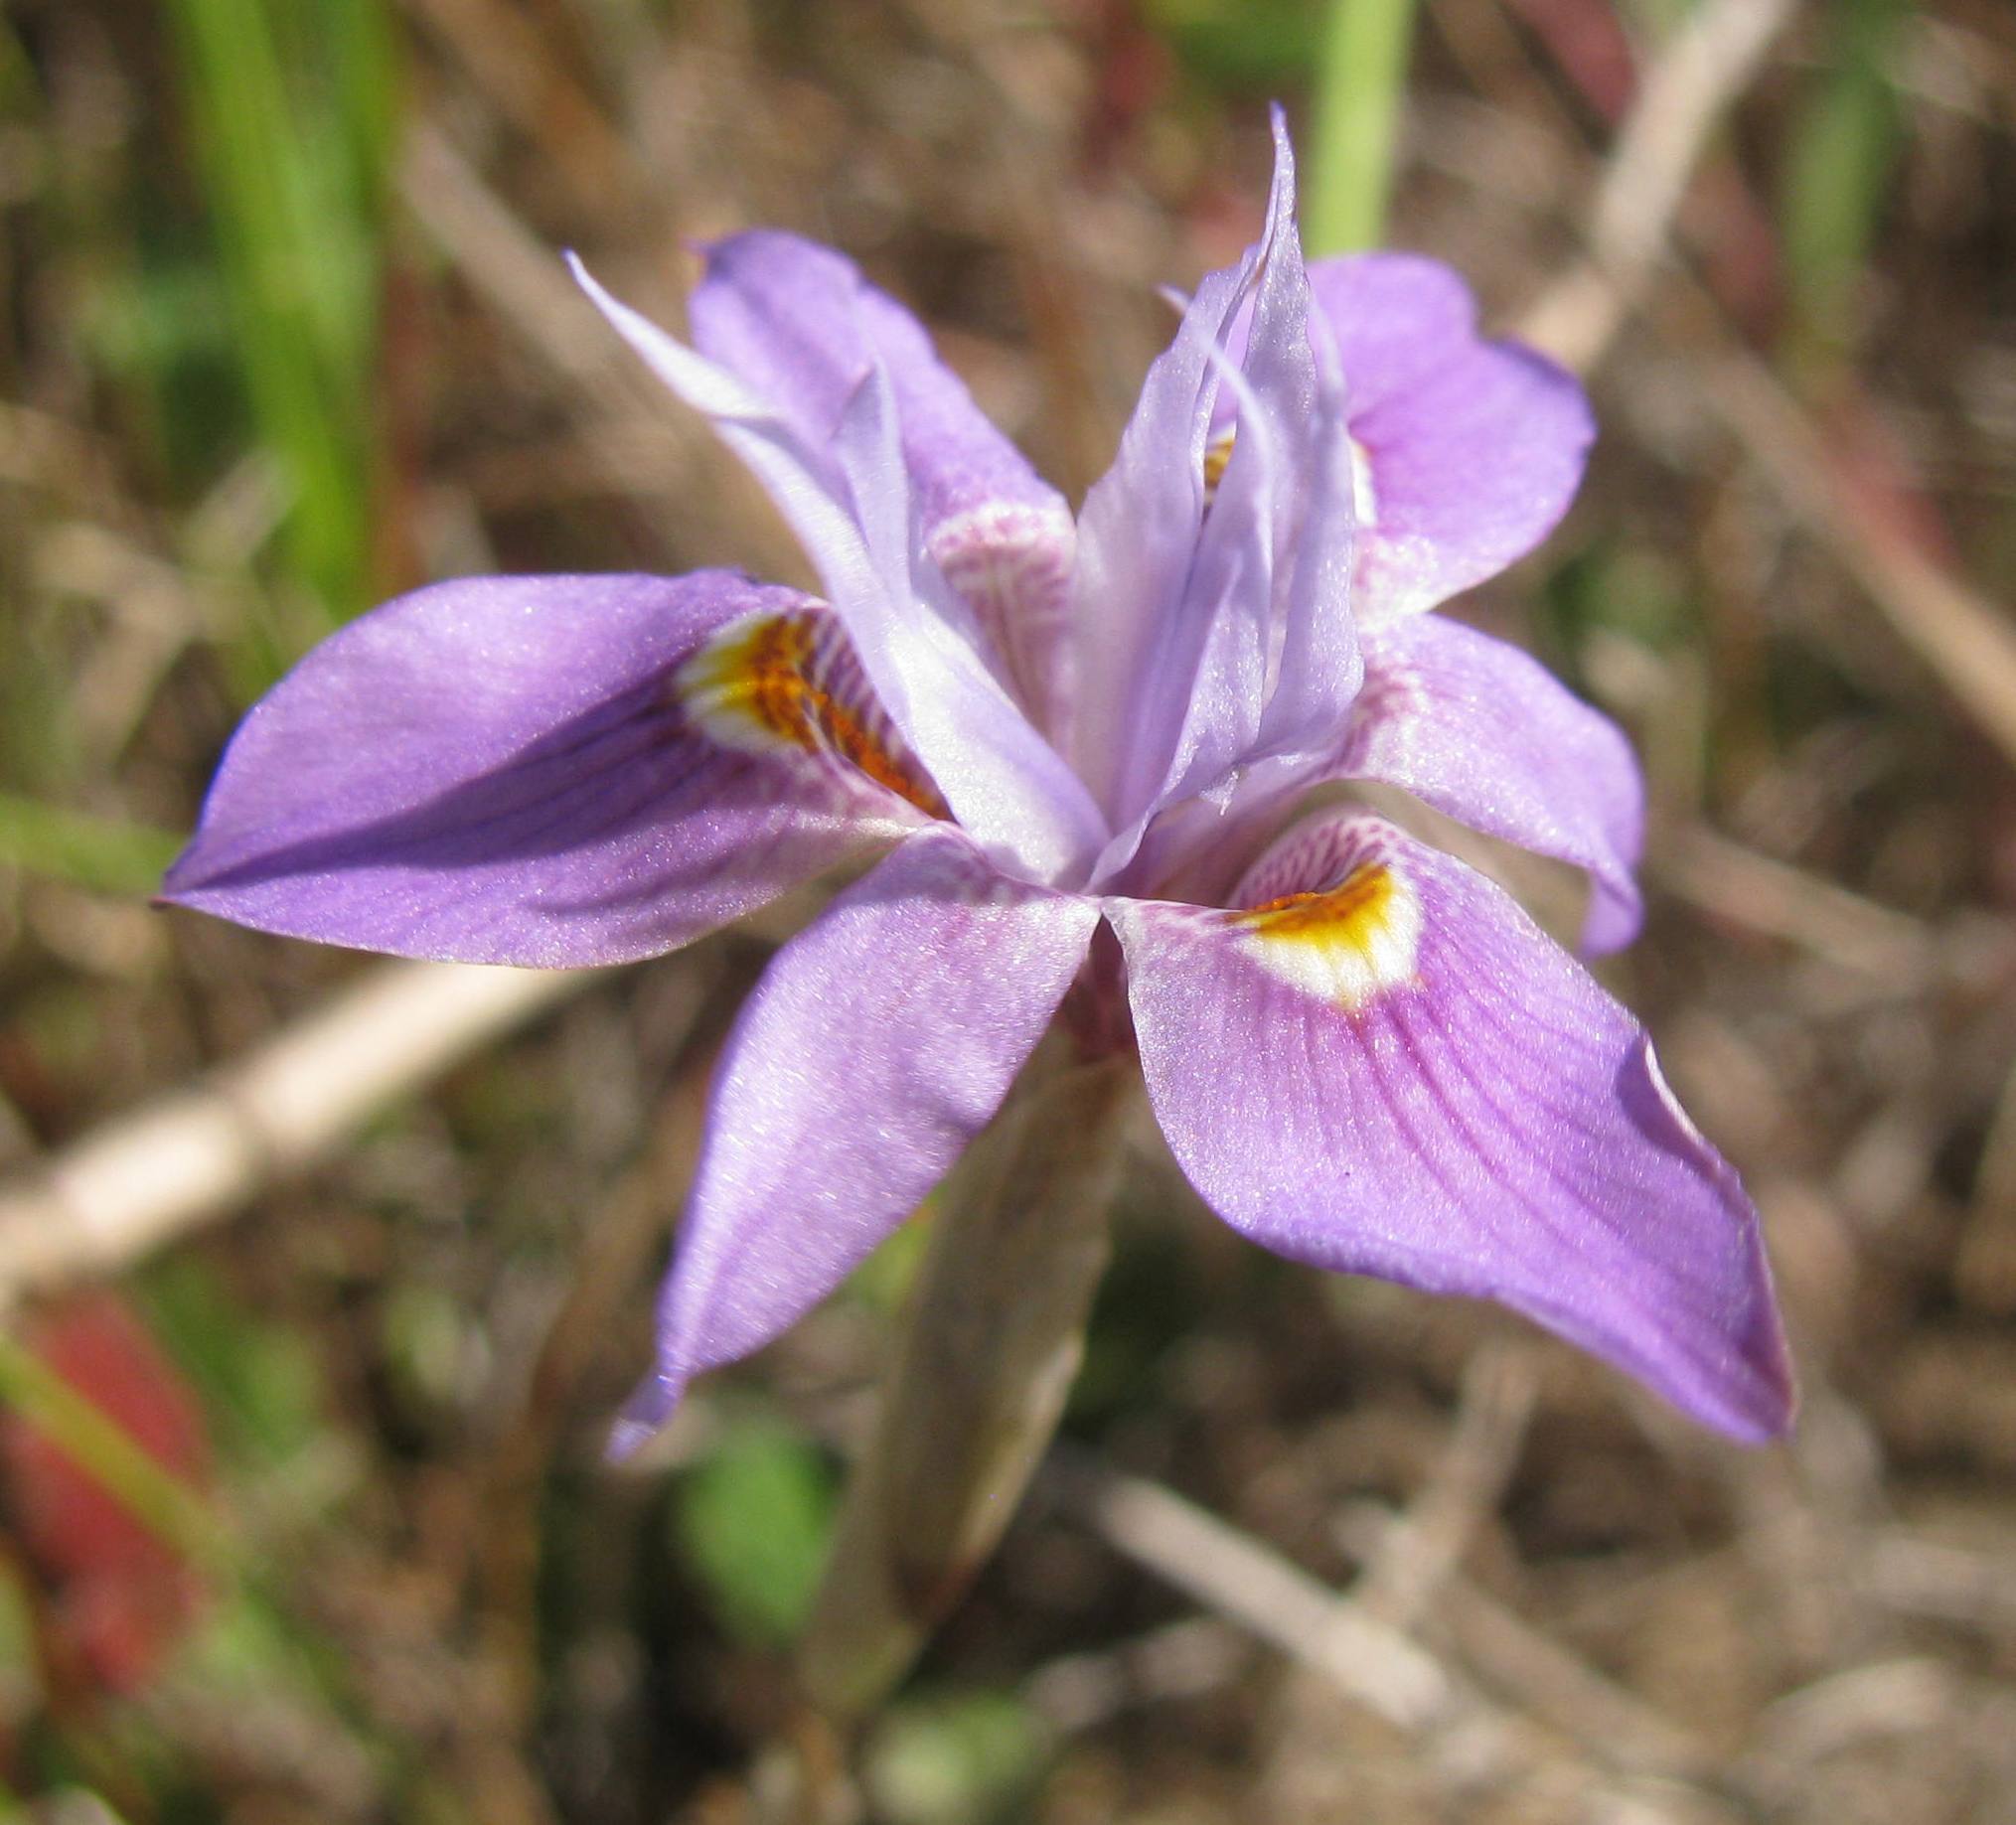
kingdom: Plantae
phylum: Tracheophyta
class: Liliopsida
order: Asparagales
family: Iridaceae
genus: Moraea
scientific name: Moraea setifolia
